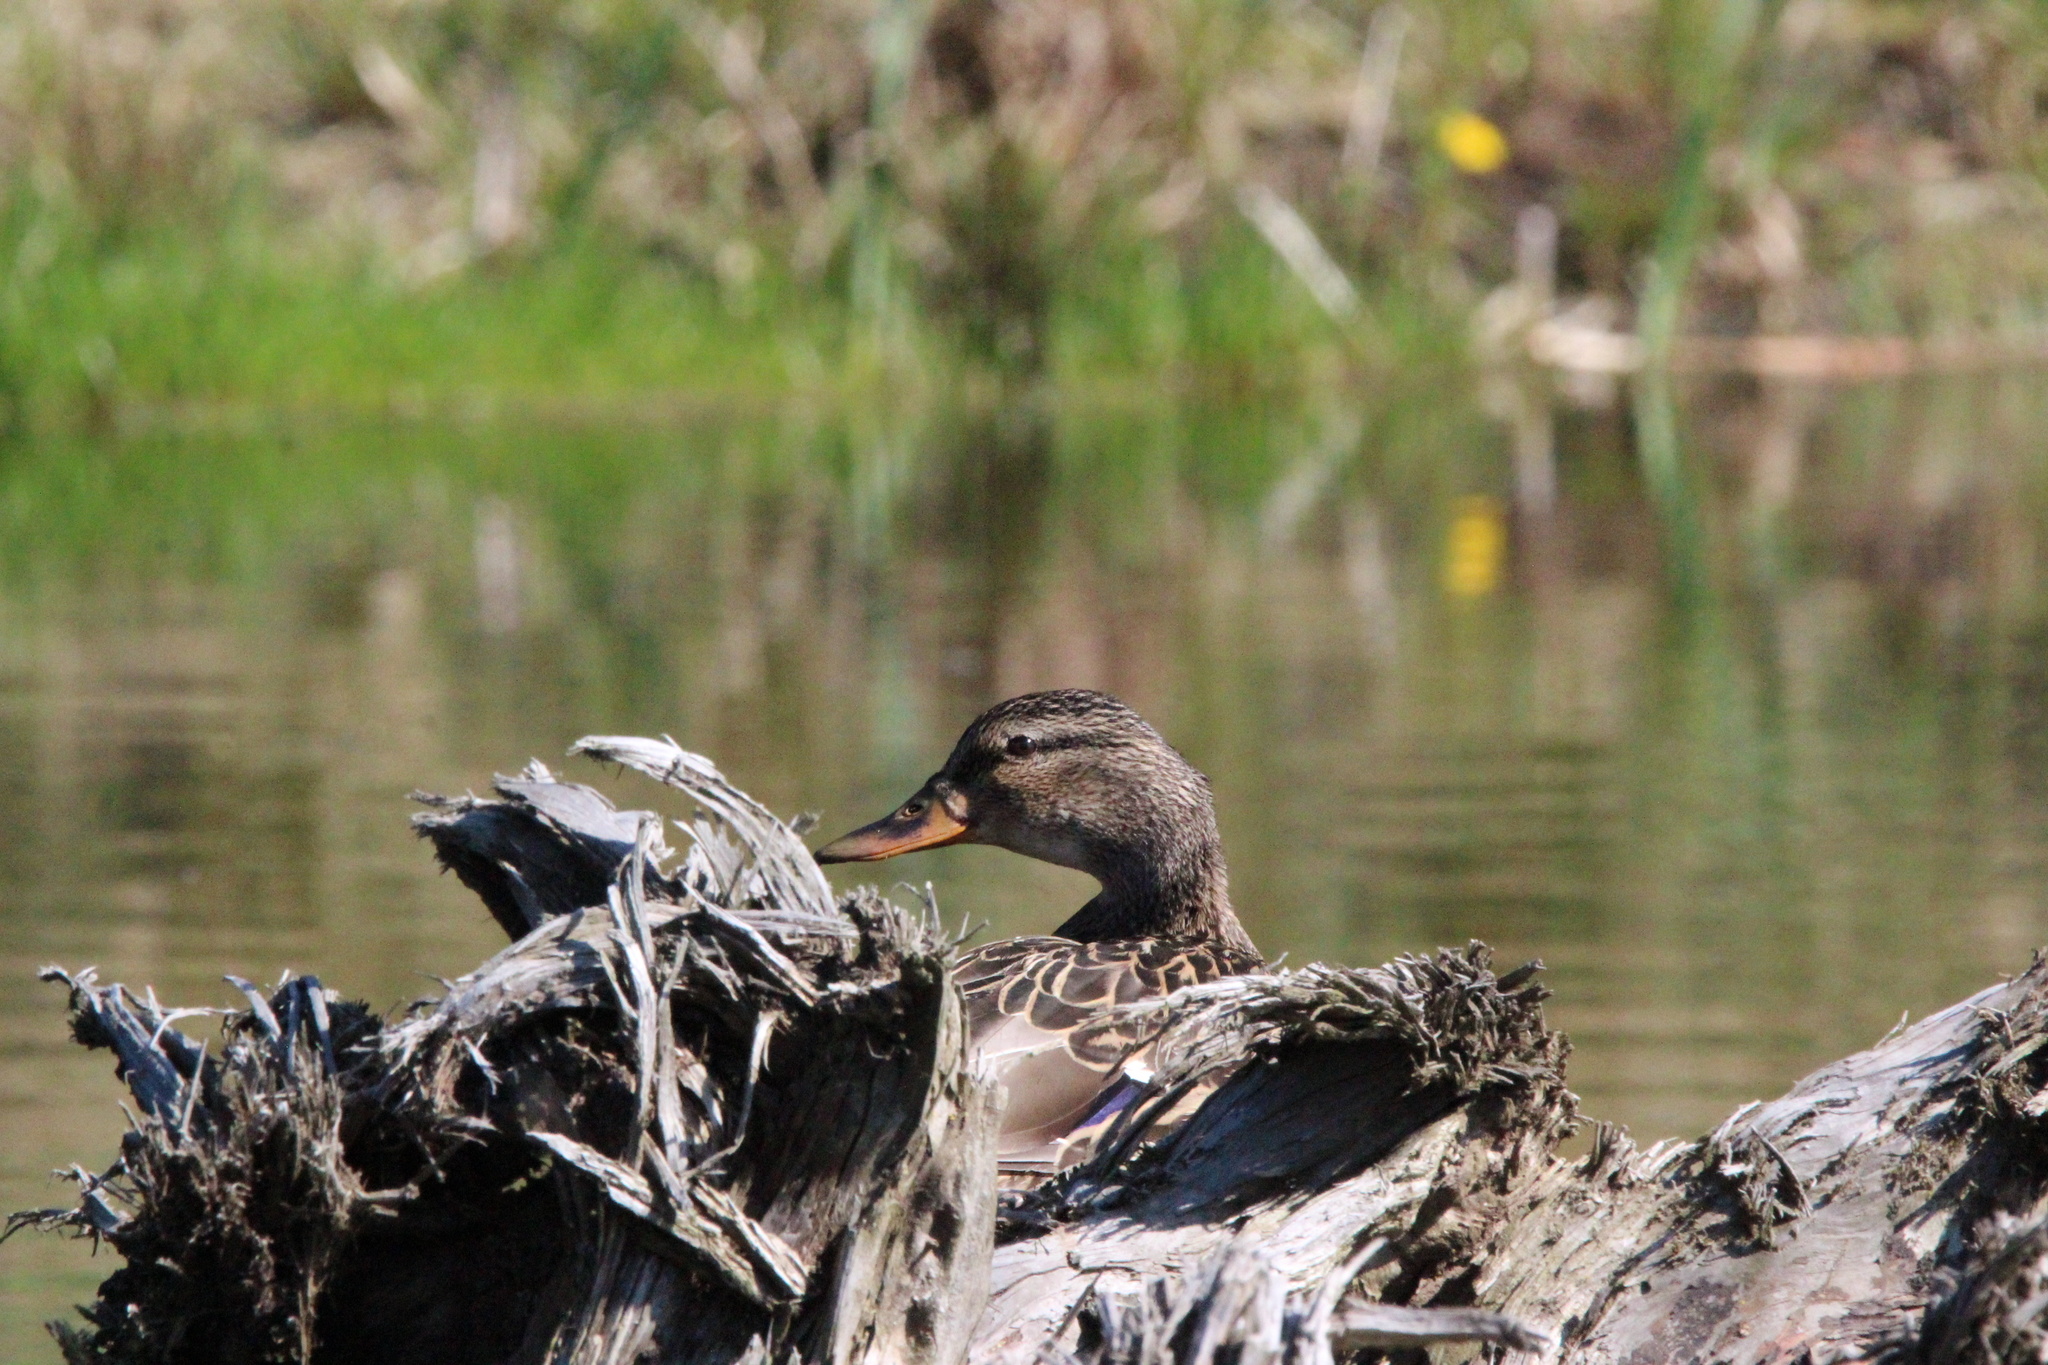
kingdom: Animalia
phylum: Chordata
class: Aves
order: Anseriformes
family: Anatidae
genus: Anas
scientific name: Anas platyrhynchos
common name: Mallard
